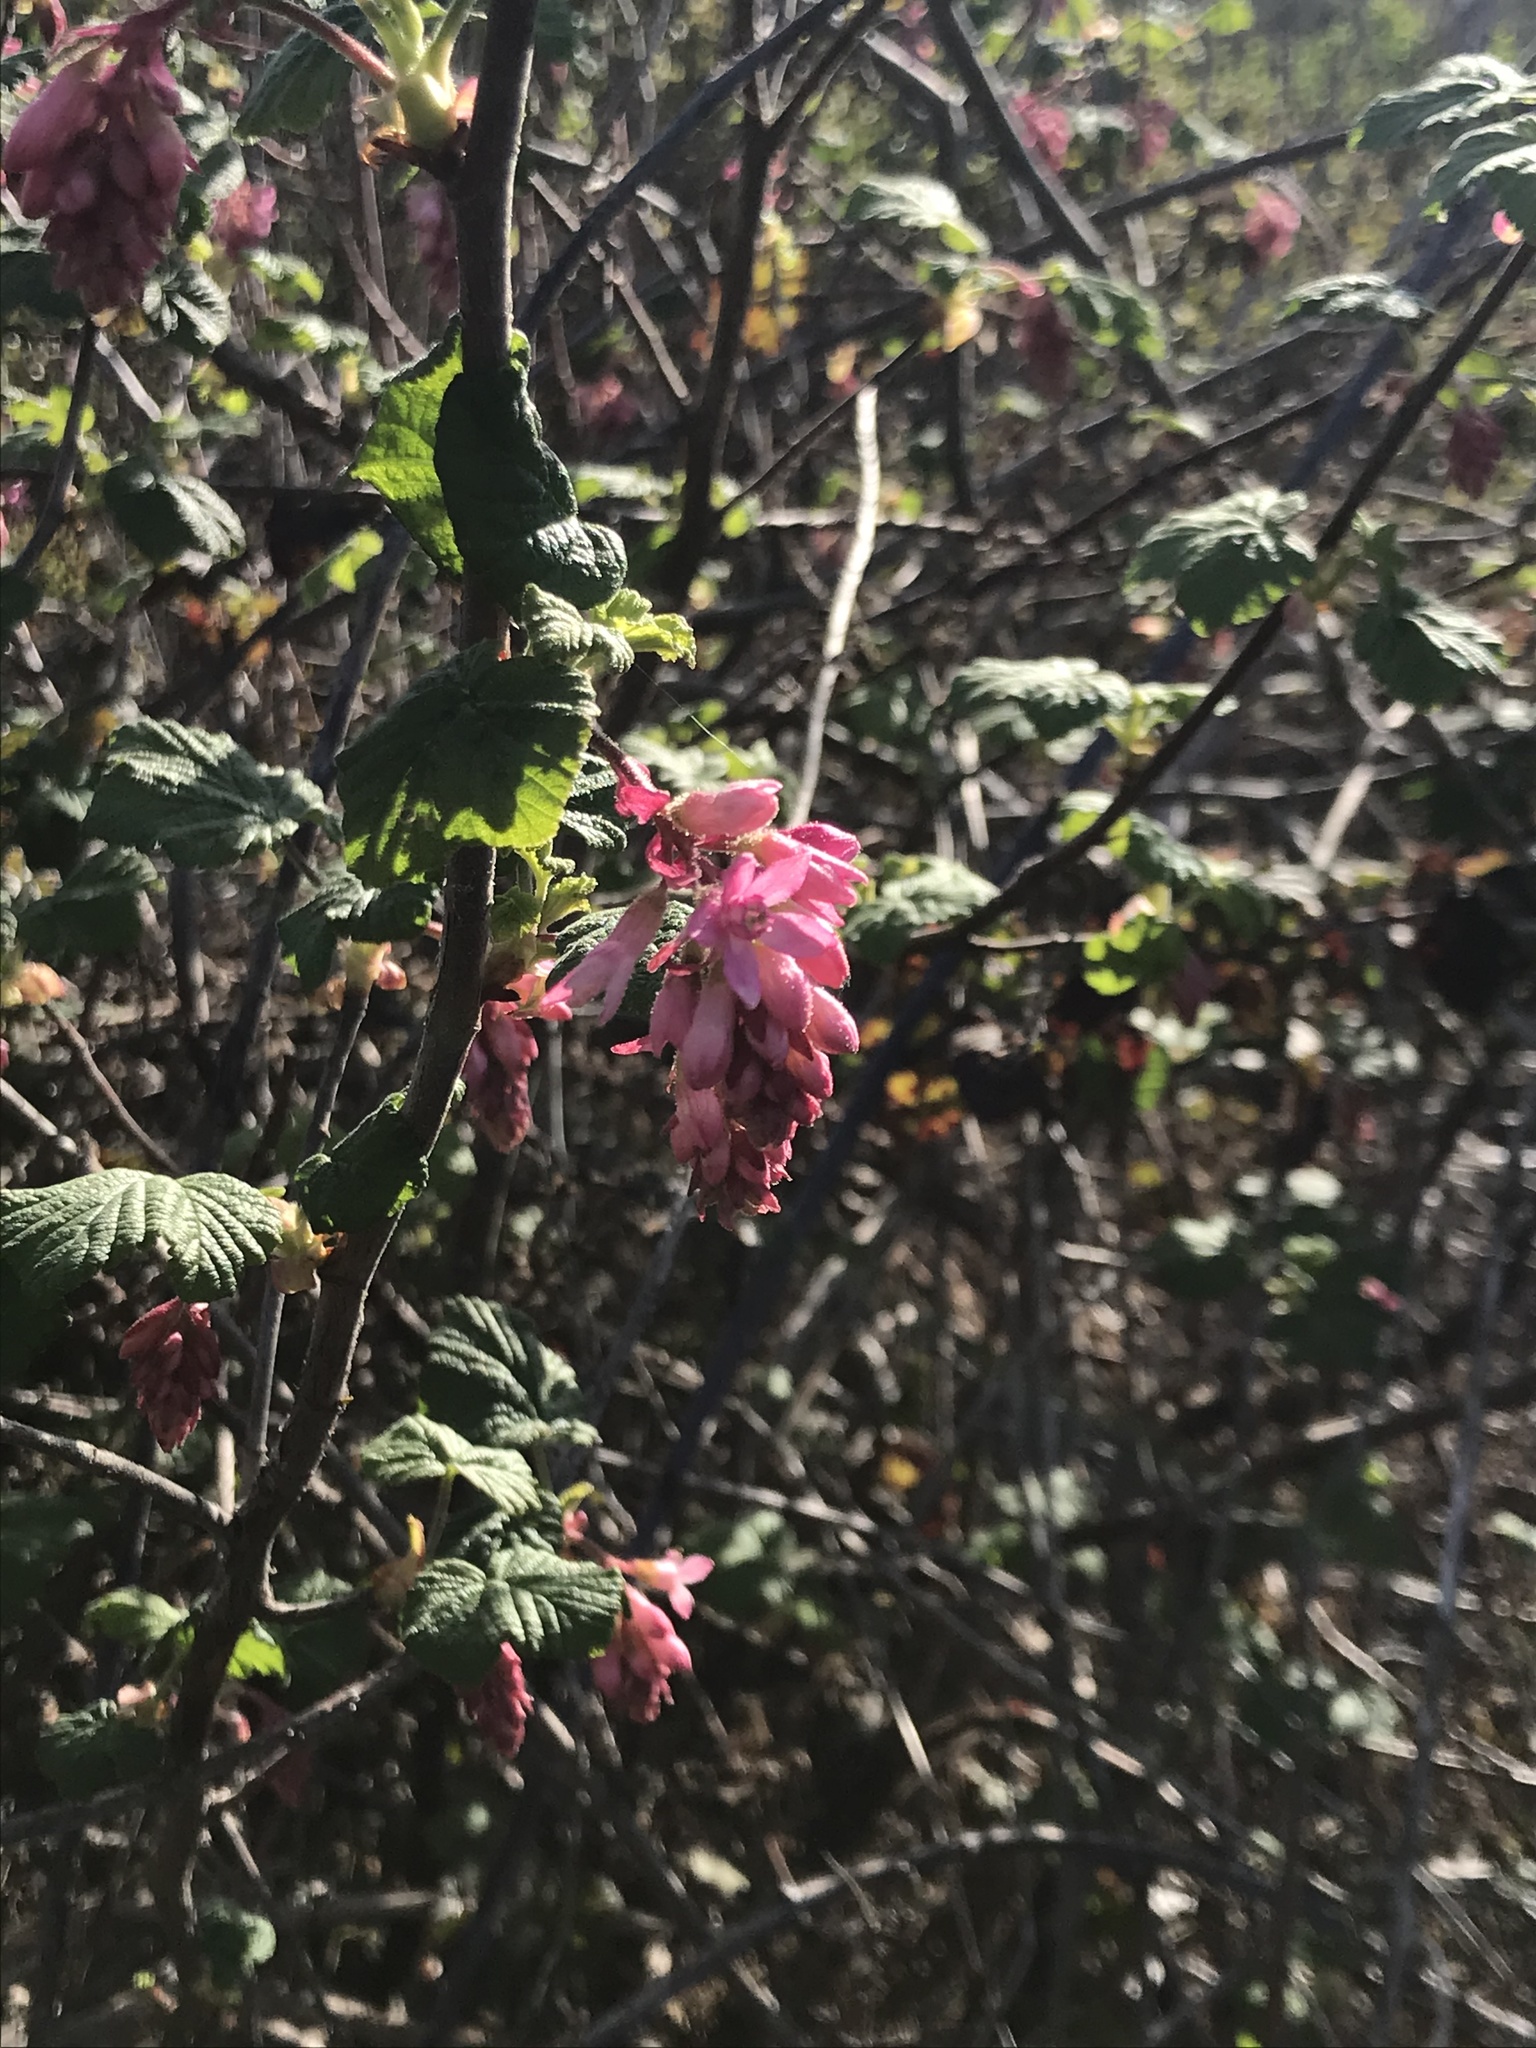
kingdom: Plantae
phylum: Tracheophyta
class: Magnoliopsida
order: Saxifragales
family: Grossulariaceae
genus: Ribes
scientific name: Ribes sanguineum
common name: Flowering currant
